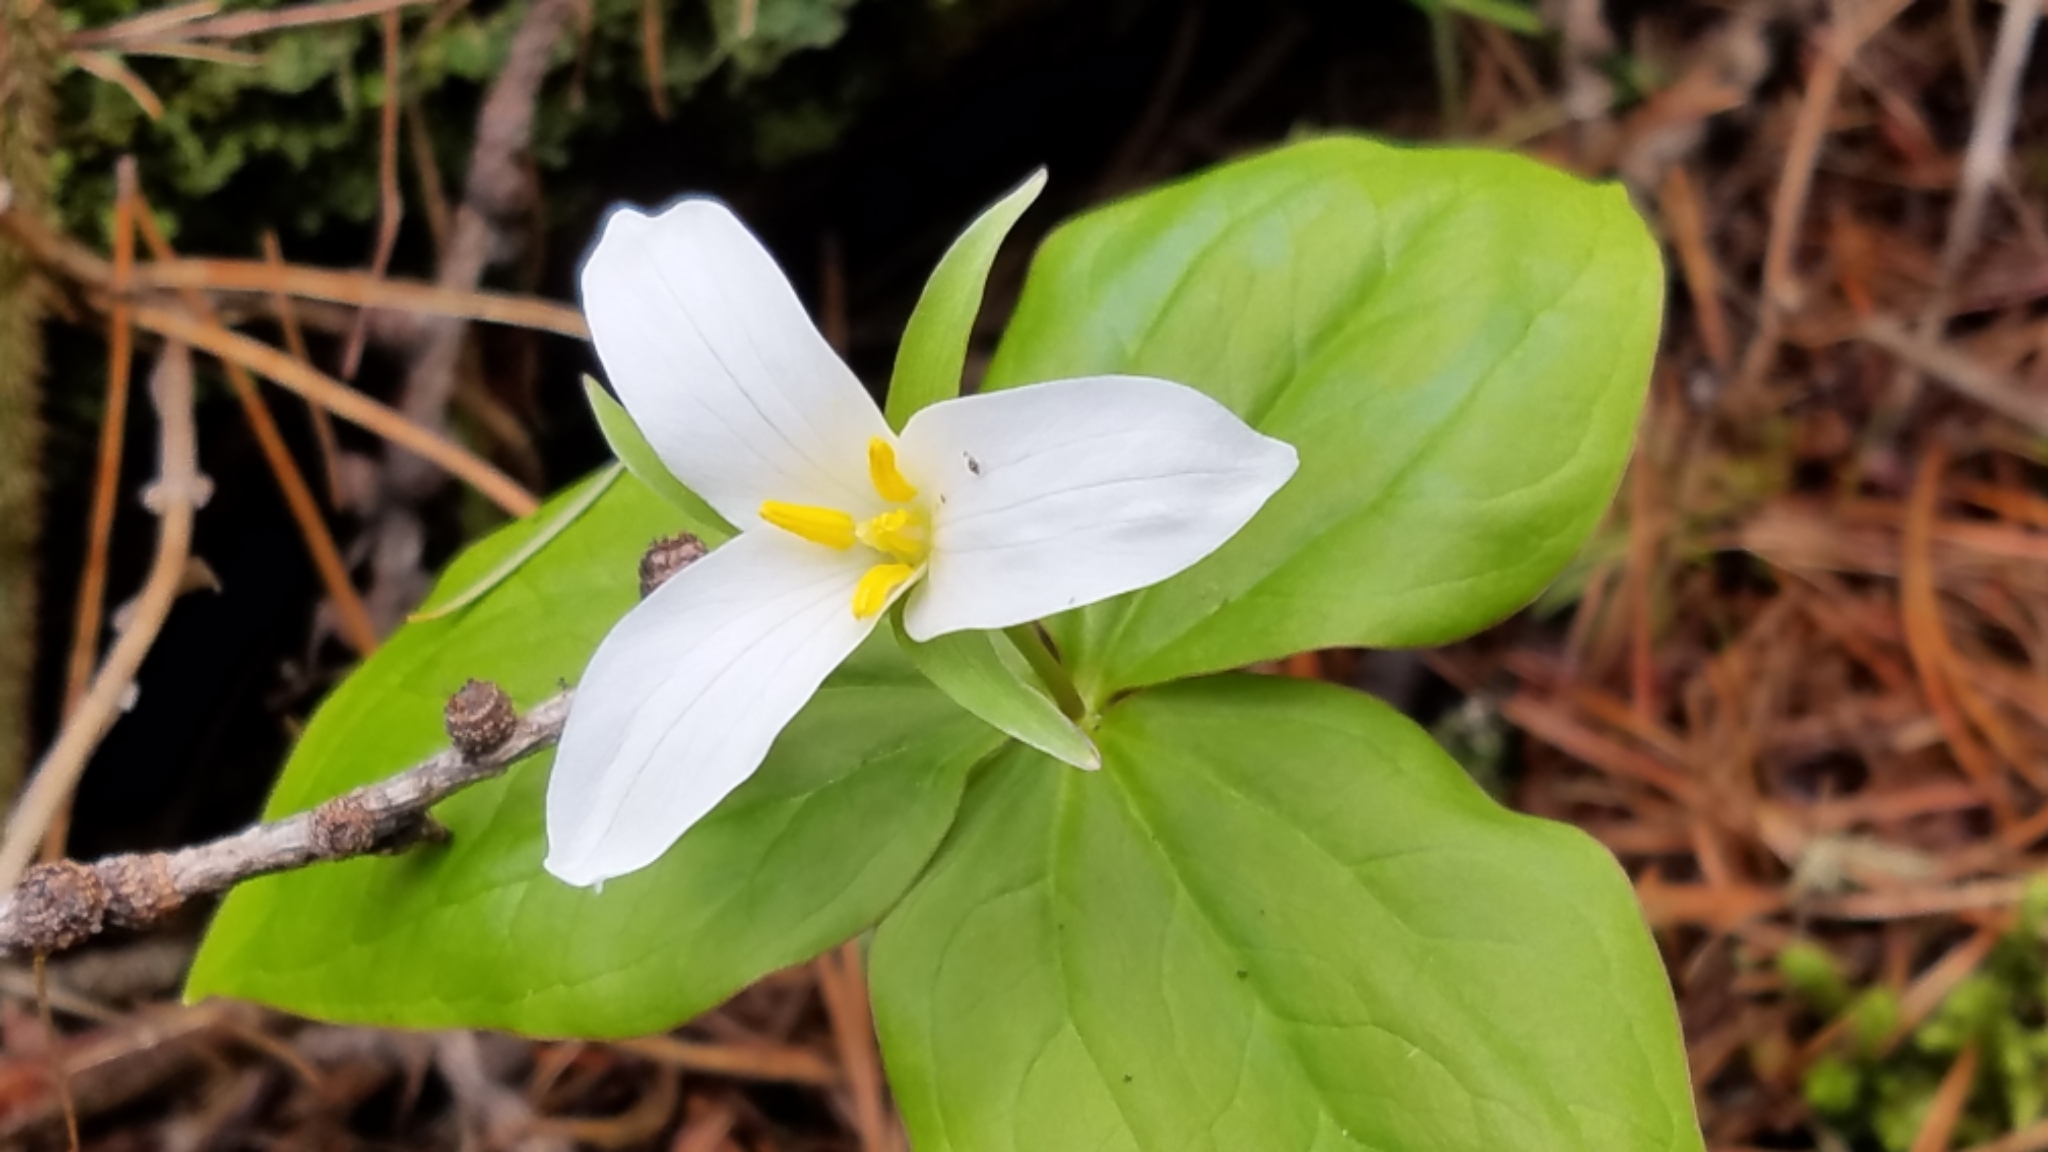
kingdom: Plantae
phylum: Tracheophyta
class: Liliopsida
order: Liliales
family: Melanthiaceae
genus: Trillium
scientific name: Trillium ovatum
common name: Pacific trillium
